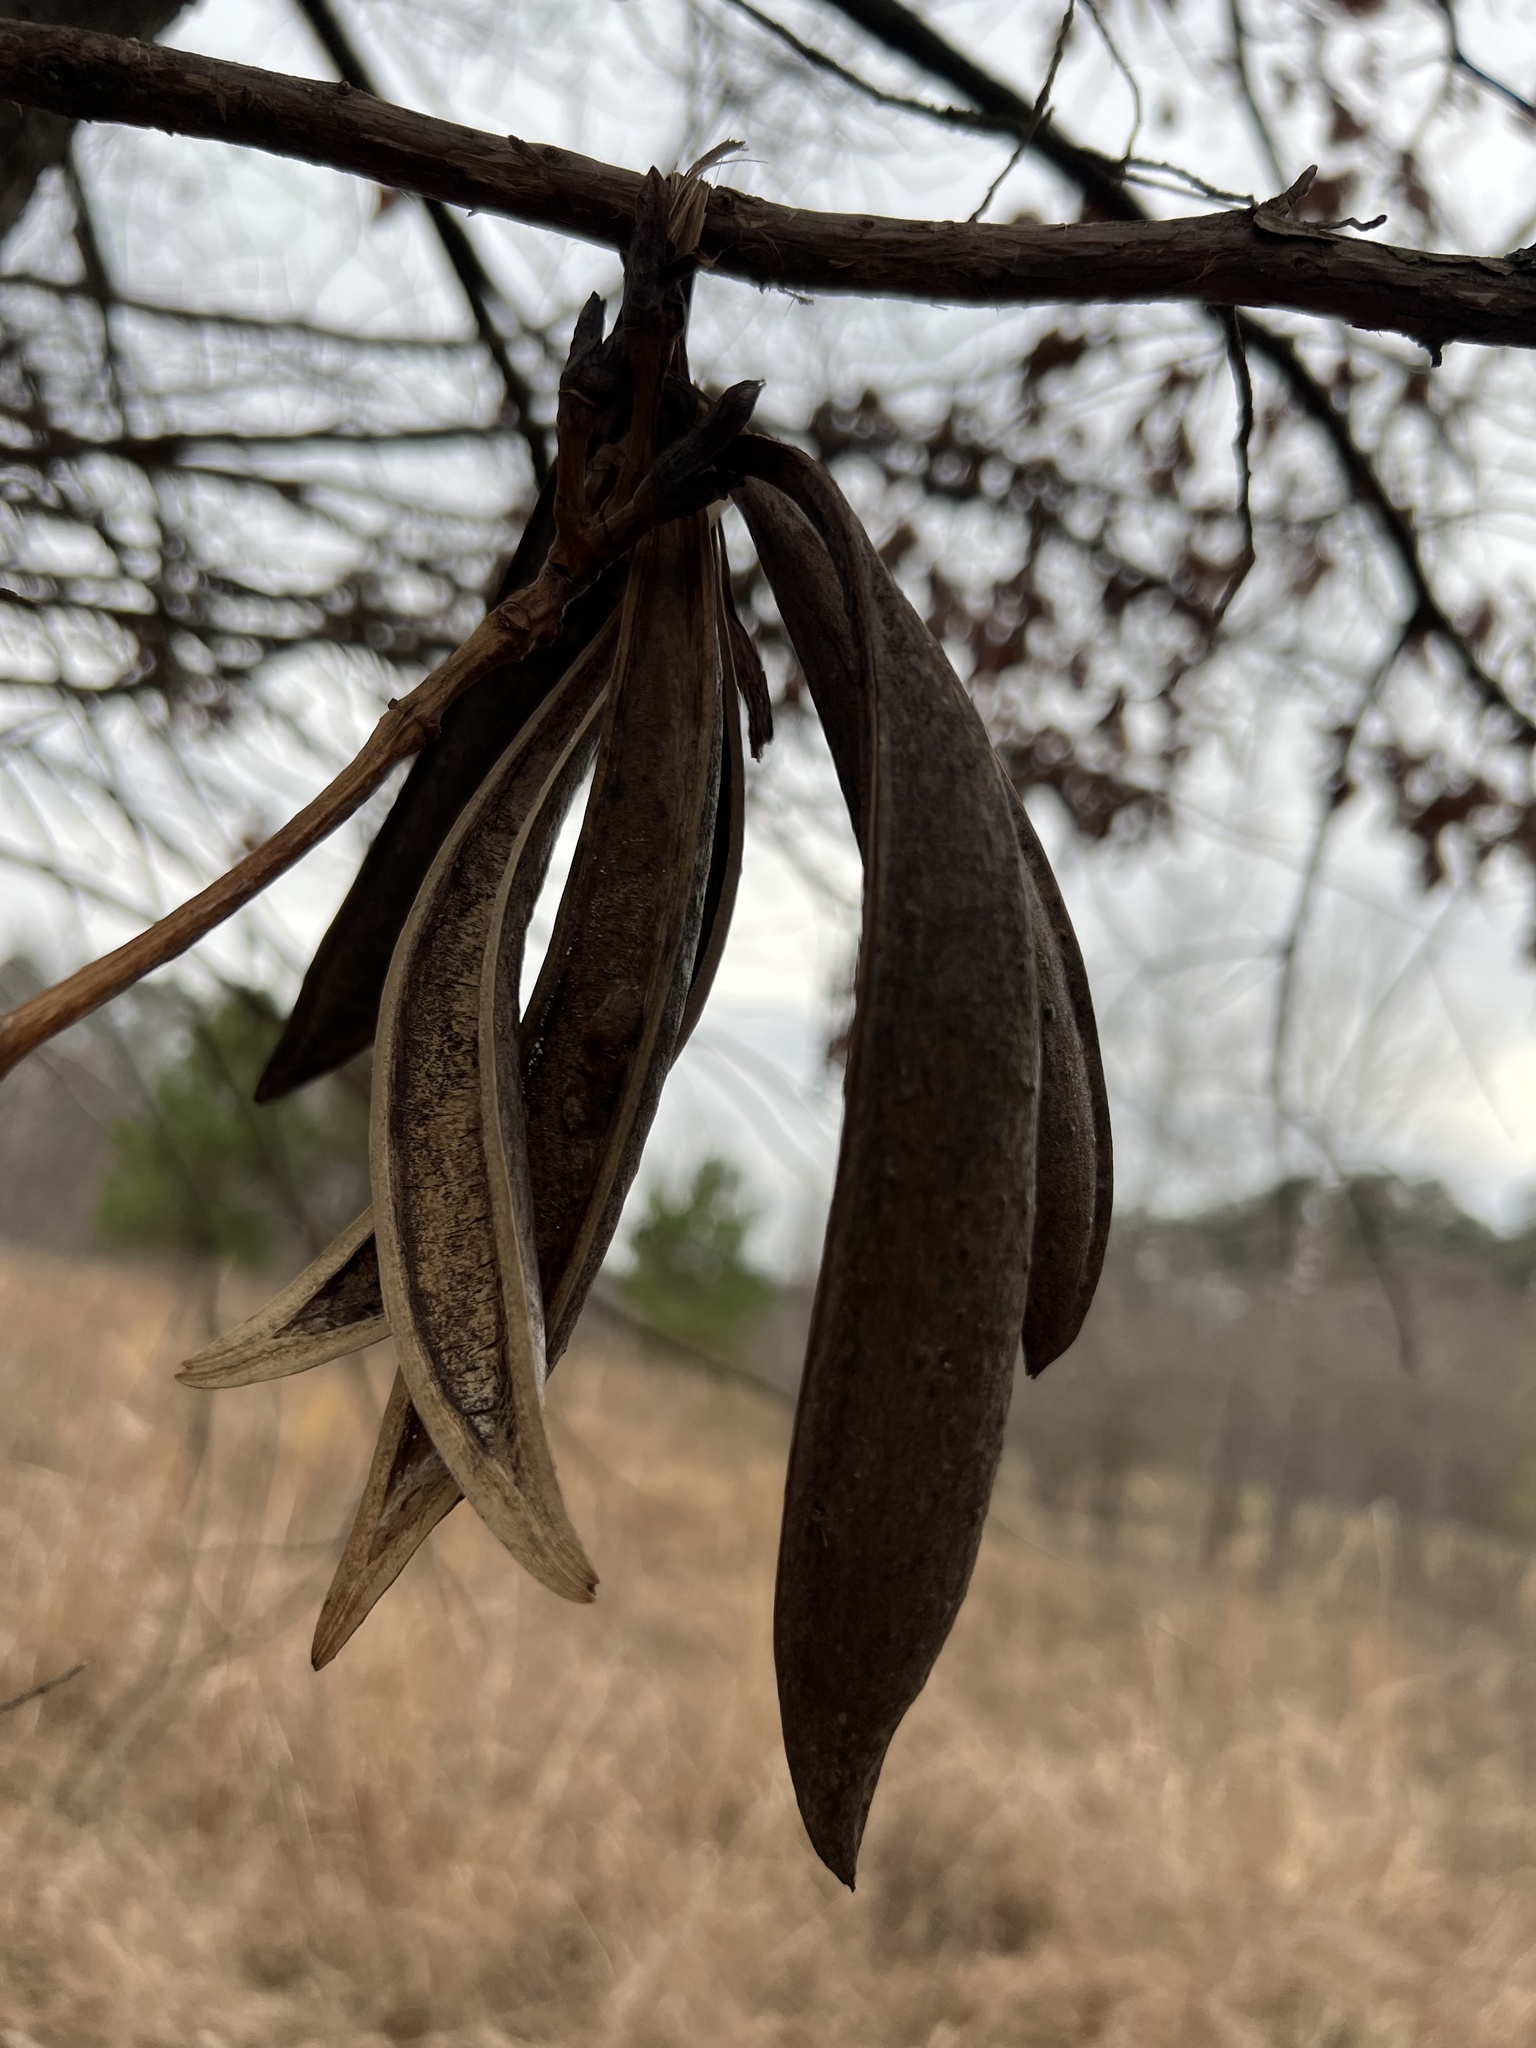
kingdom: Plantae
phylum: Tracheophyta
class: Magnoliopsida
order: Lamiales
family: Bignoniaceae
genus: Campsis
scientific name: Campsis radicans
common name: Trumpet-creeper
